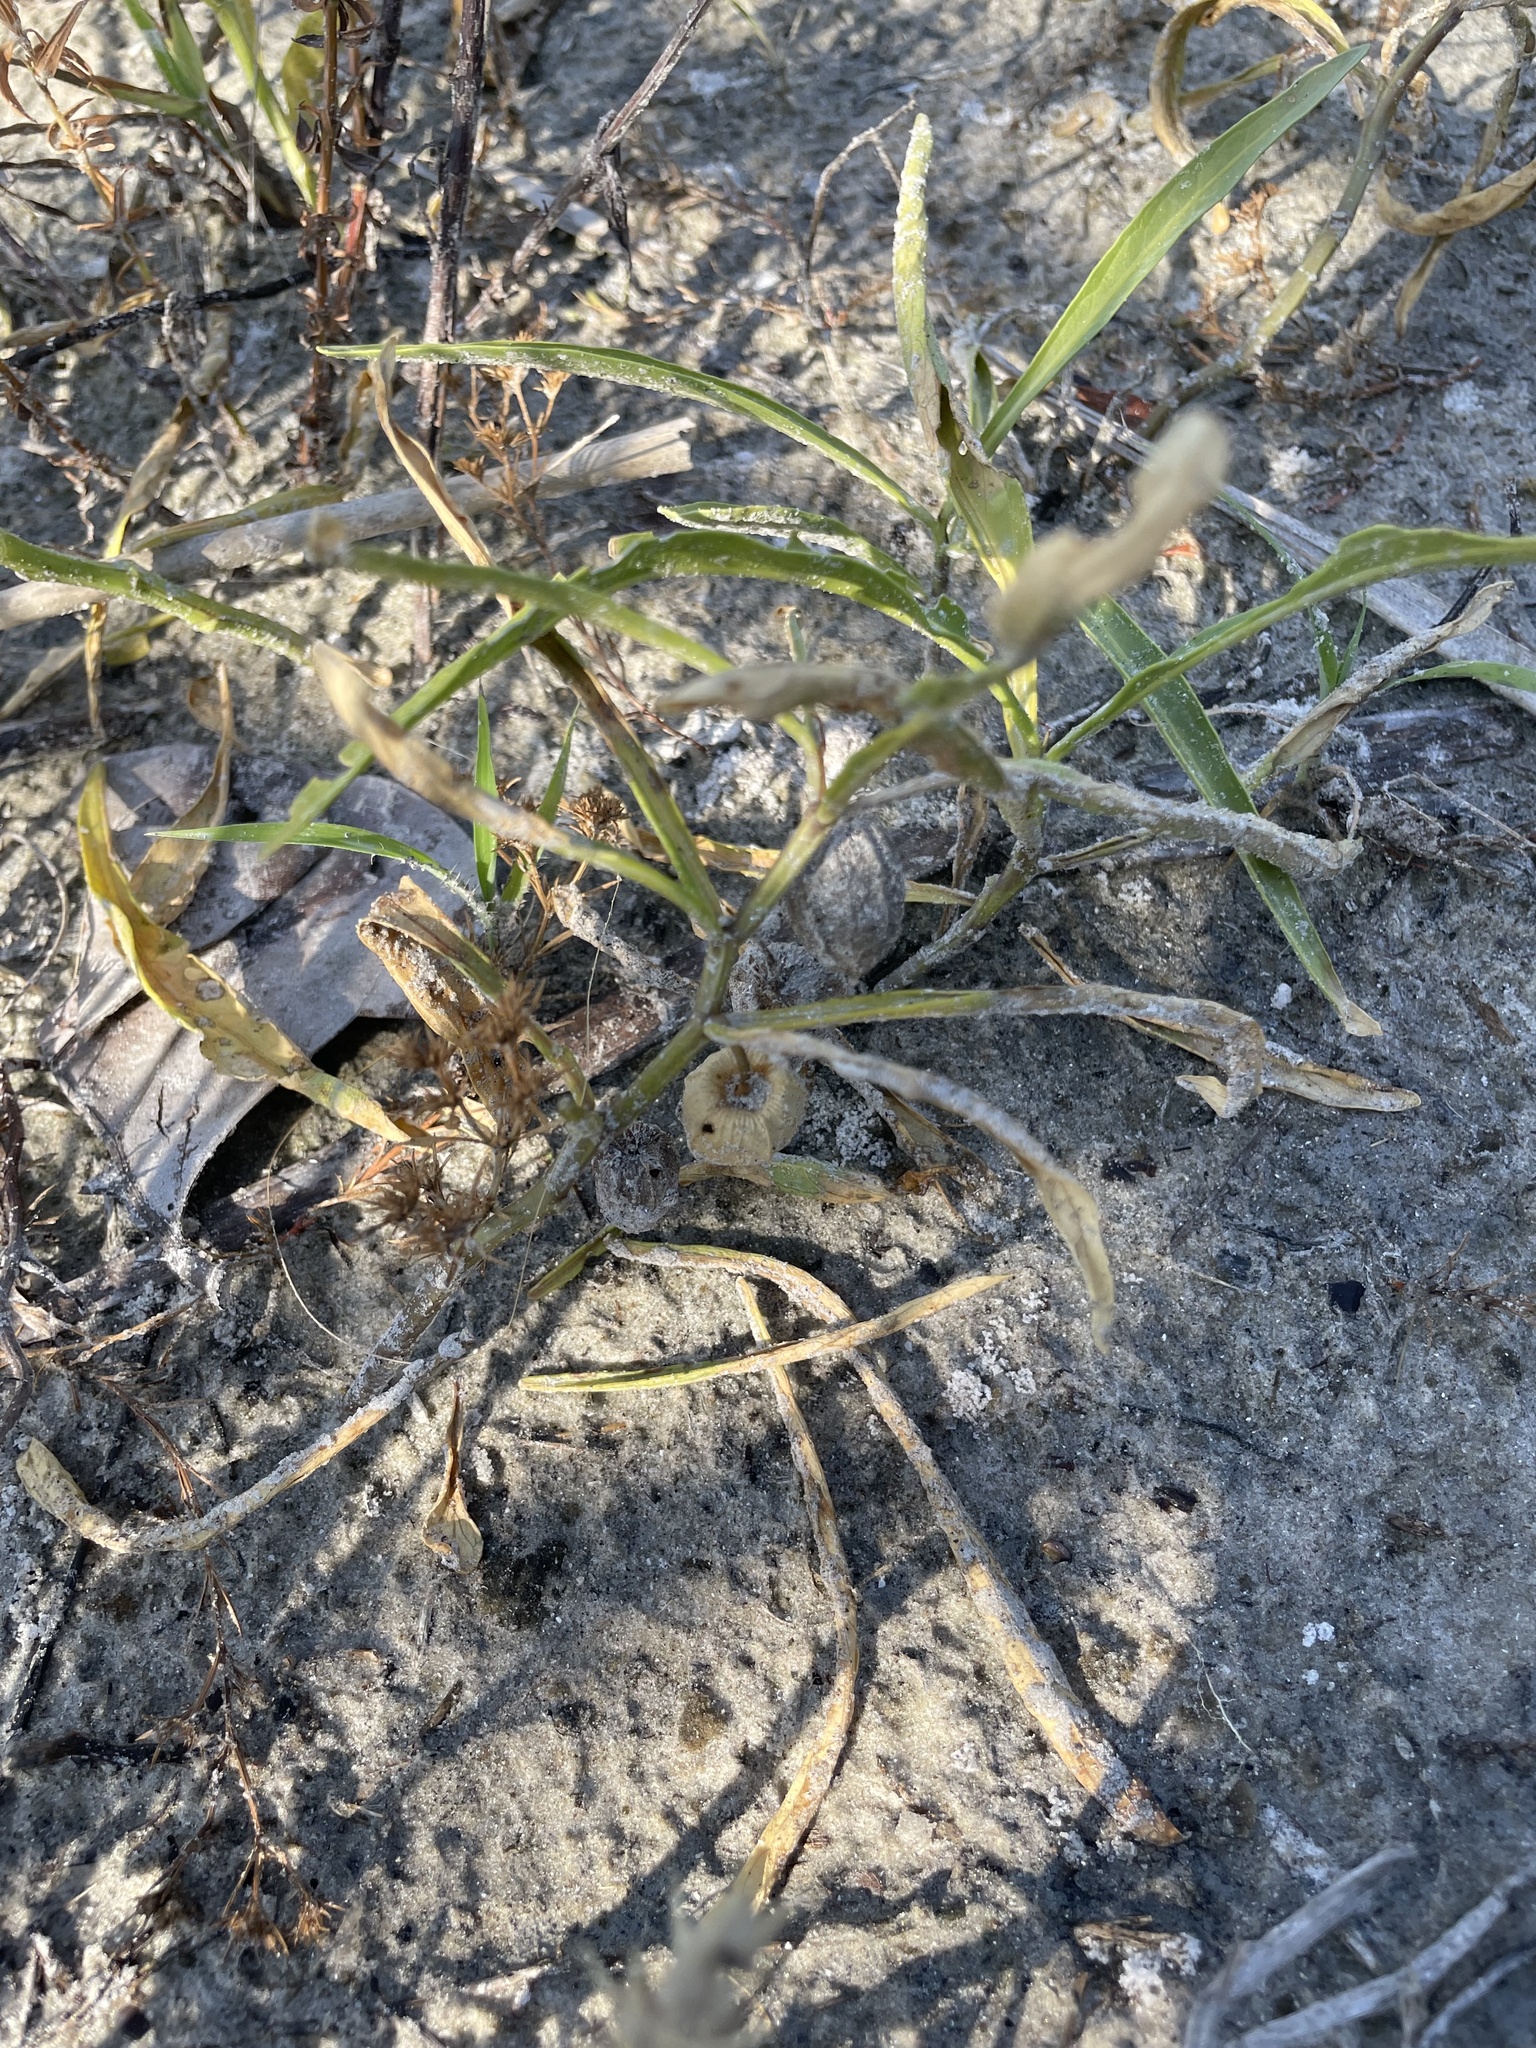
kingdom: Plantae
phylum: Tracheophyta
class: Magnoliopsida
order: Solanales
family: Solanaceae
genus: Physalis
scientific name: Physalis elliottii
